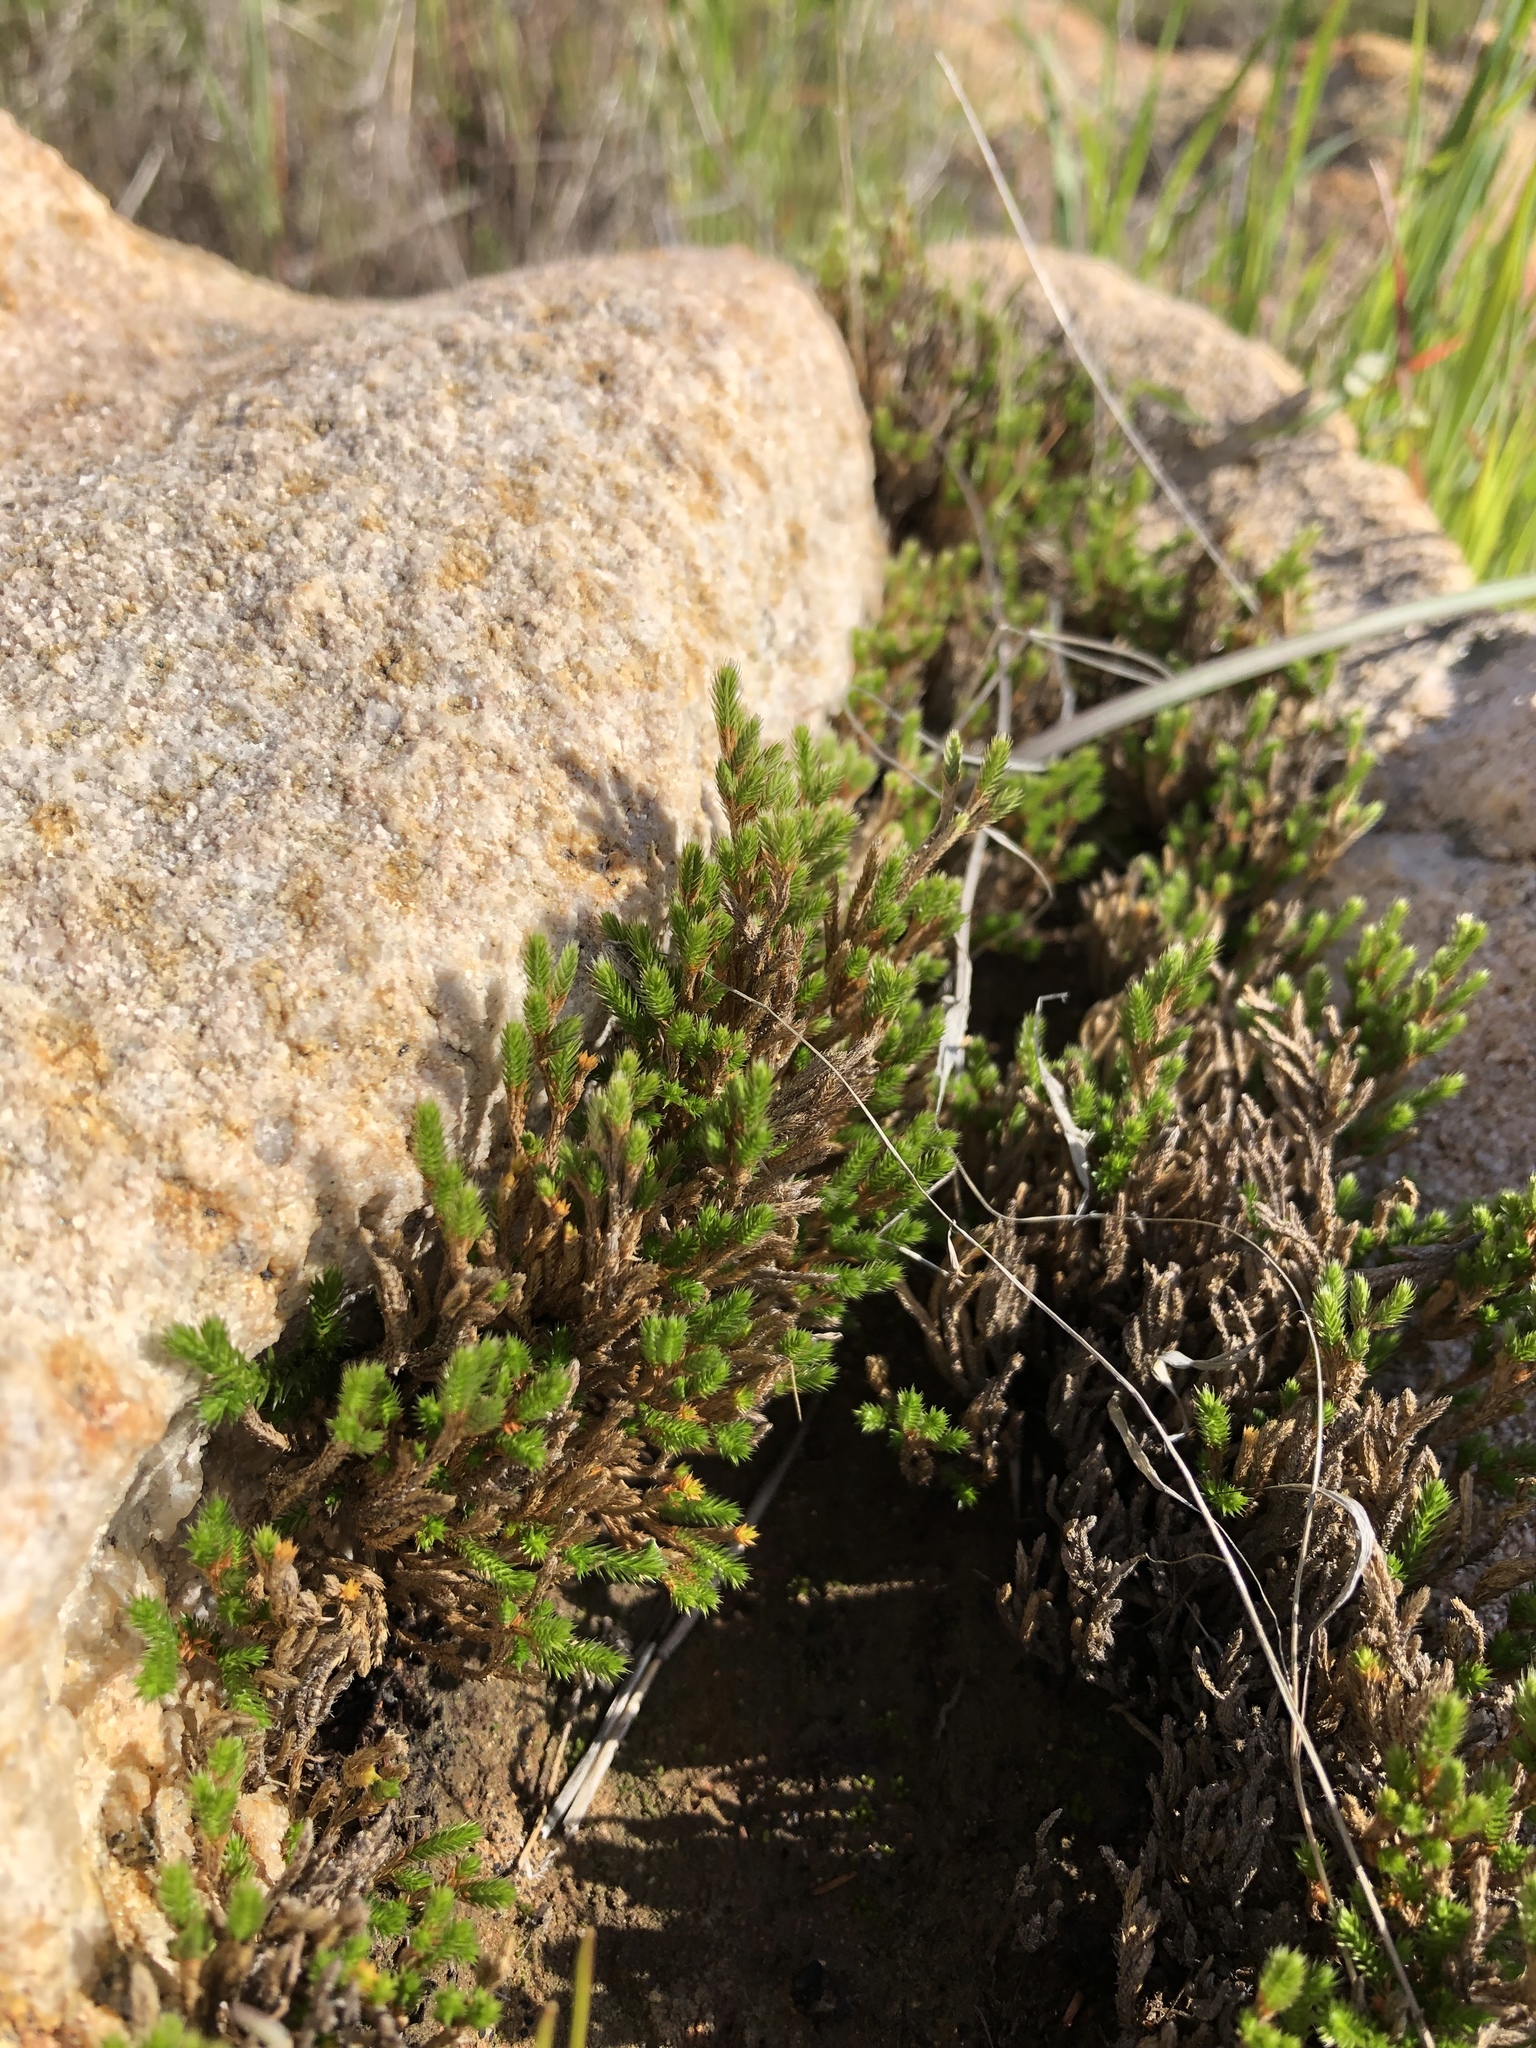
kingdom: Plantae
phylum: Tracheophyta
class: Lycopodiopsida
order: Selaginellales
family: Selaginellaceae
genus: Selaginella
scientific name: Selaginella bigelovii
